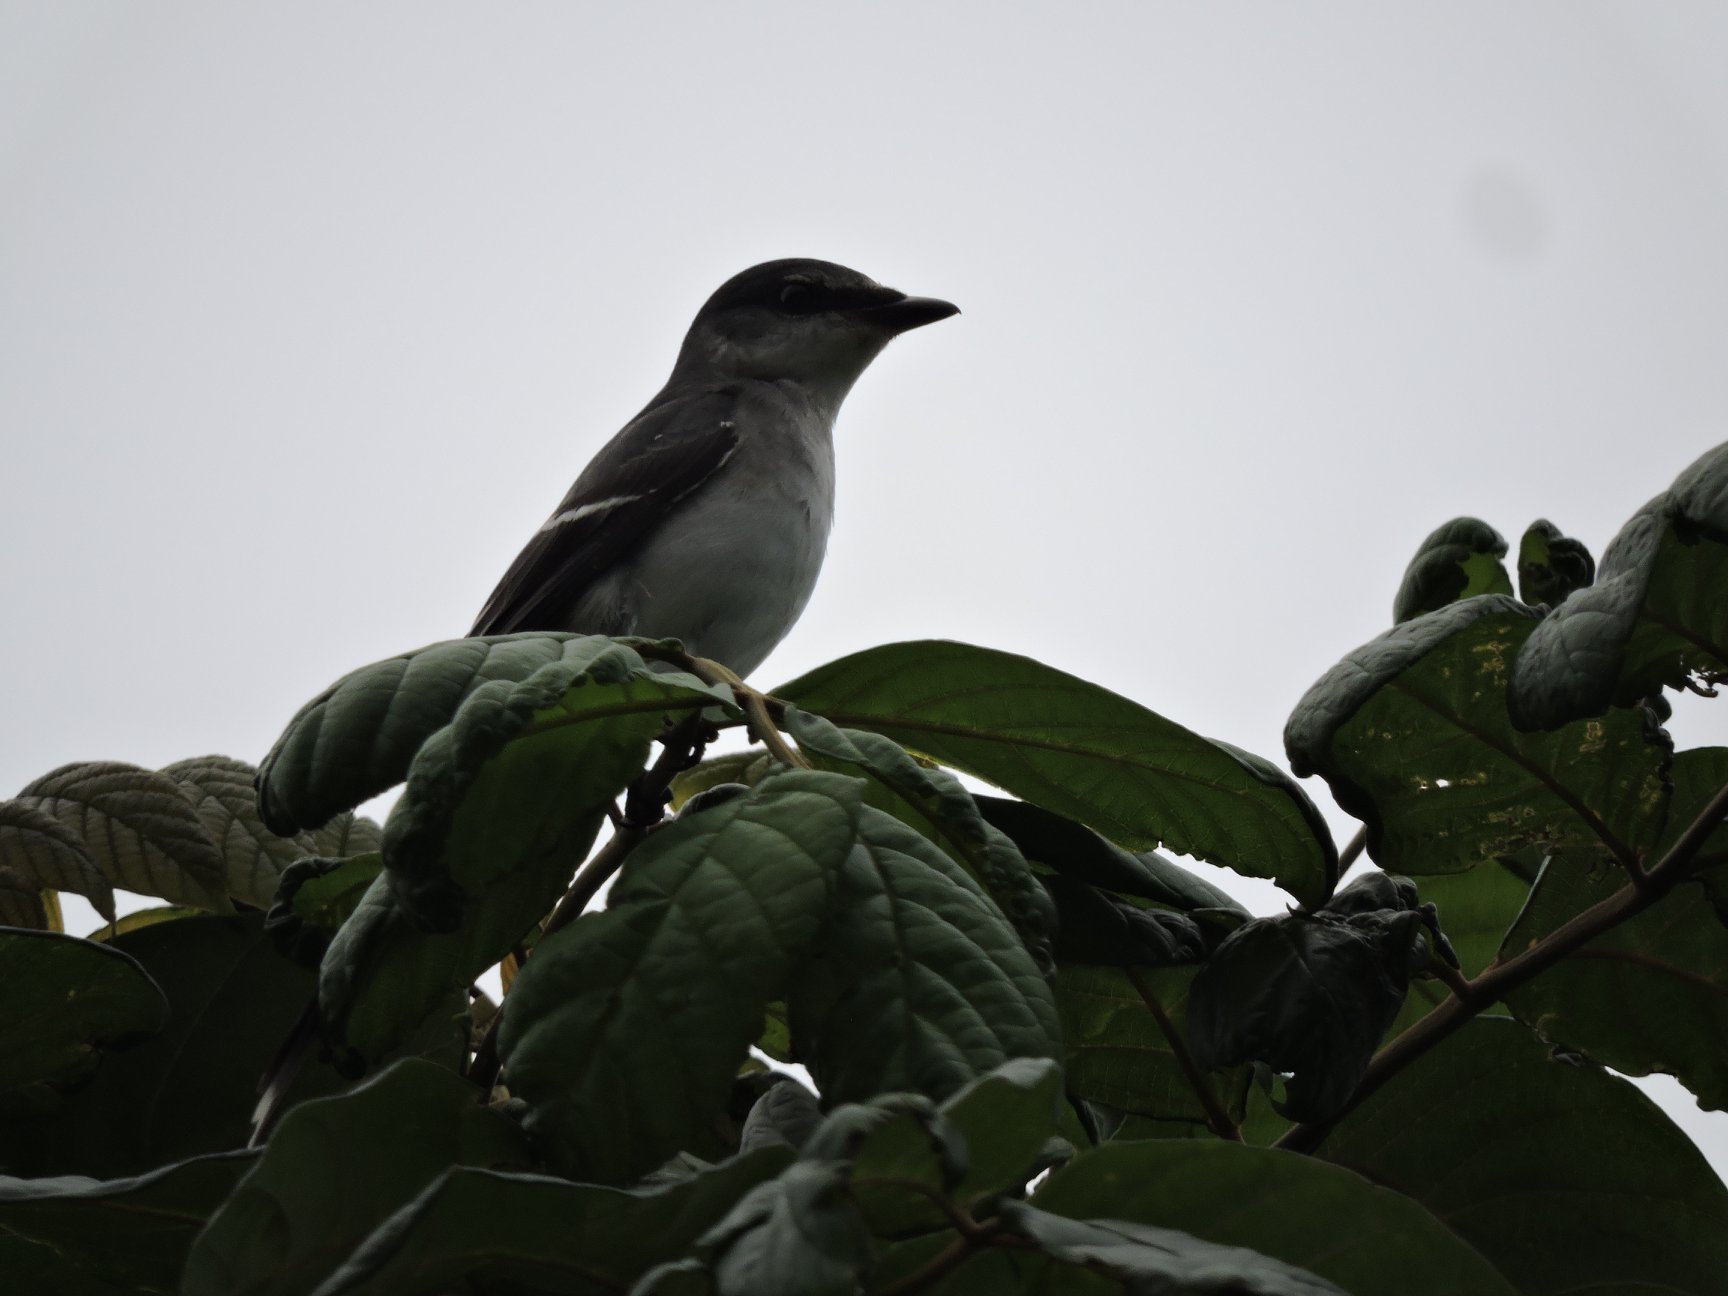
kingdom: Animalia
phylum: Chordata
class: Aves
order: Passeriformes
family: Campephagidae
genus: Pericrocotus
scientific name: Pericrocotus divaricatus
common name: Ashy minivet
